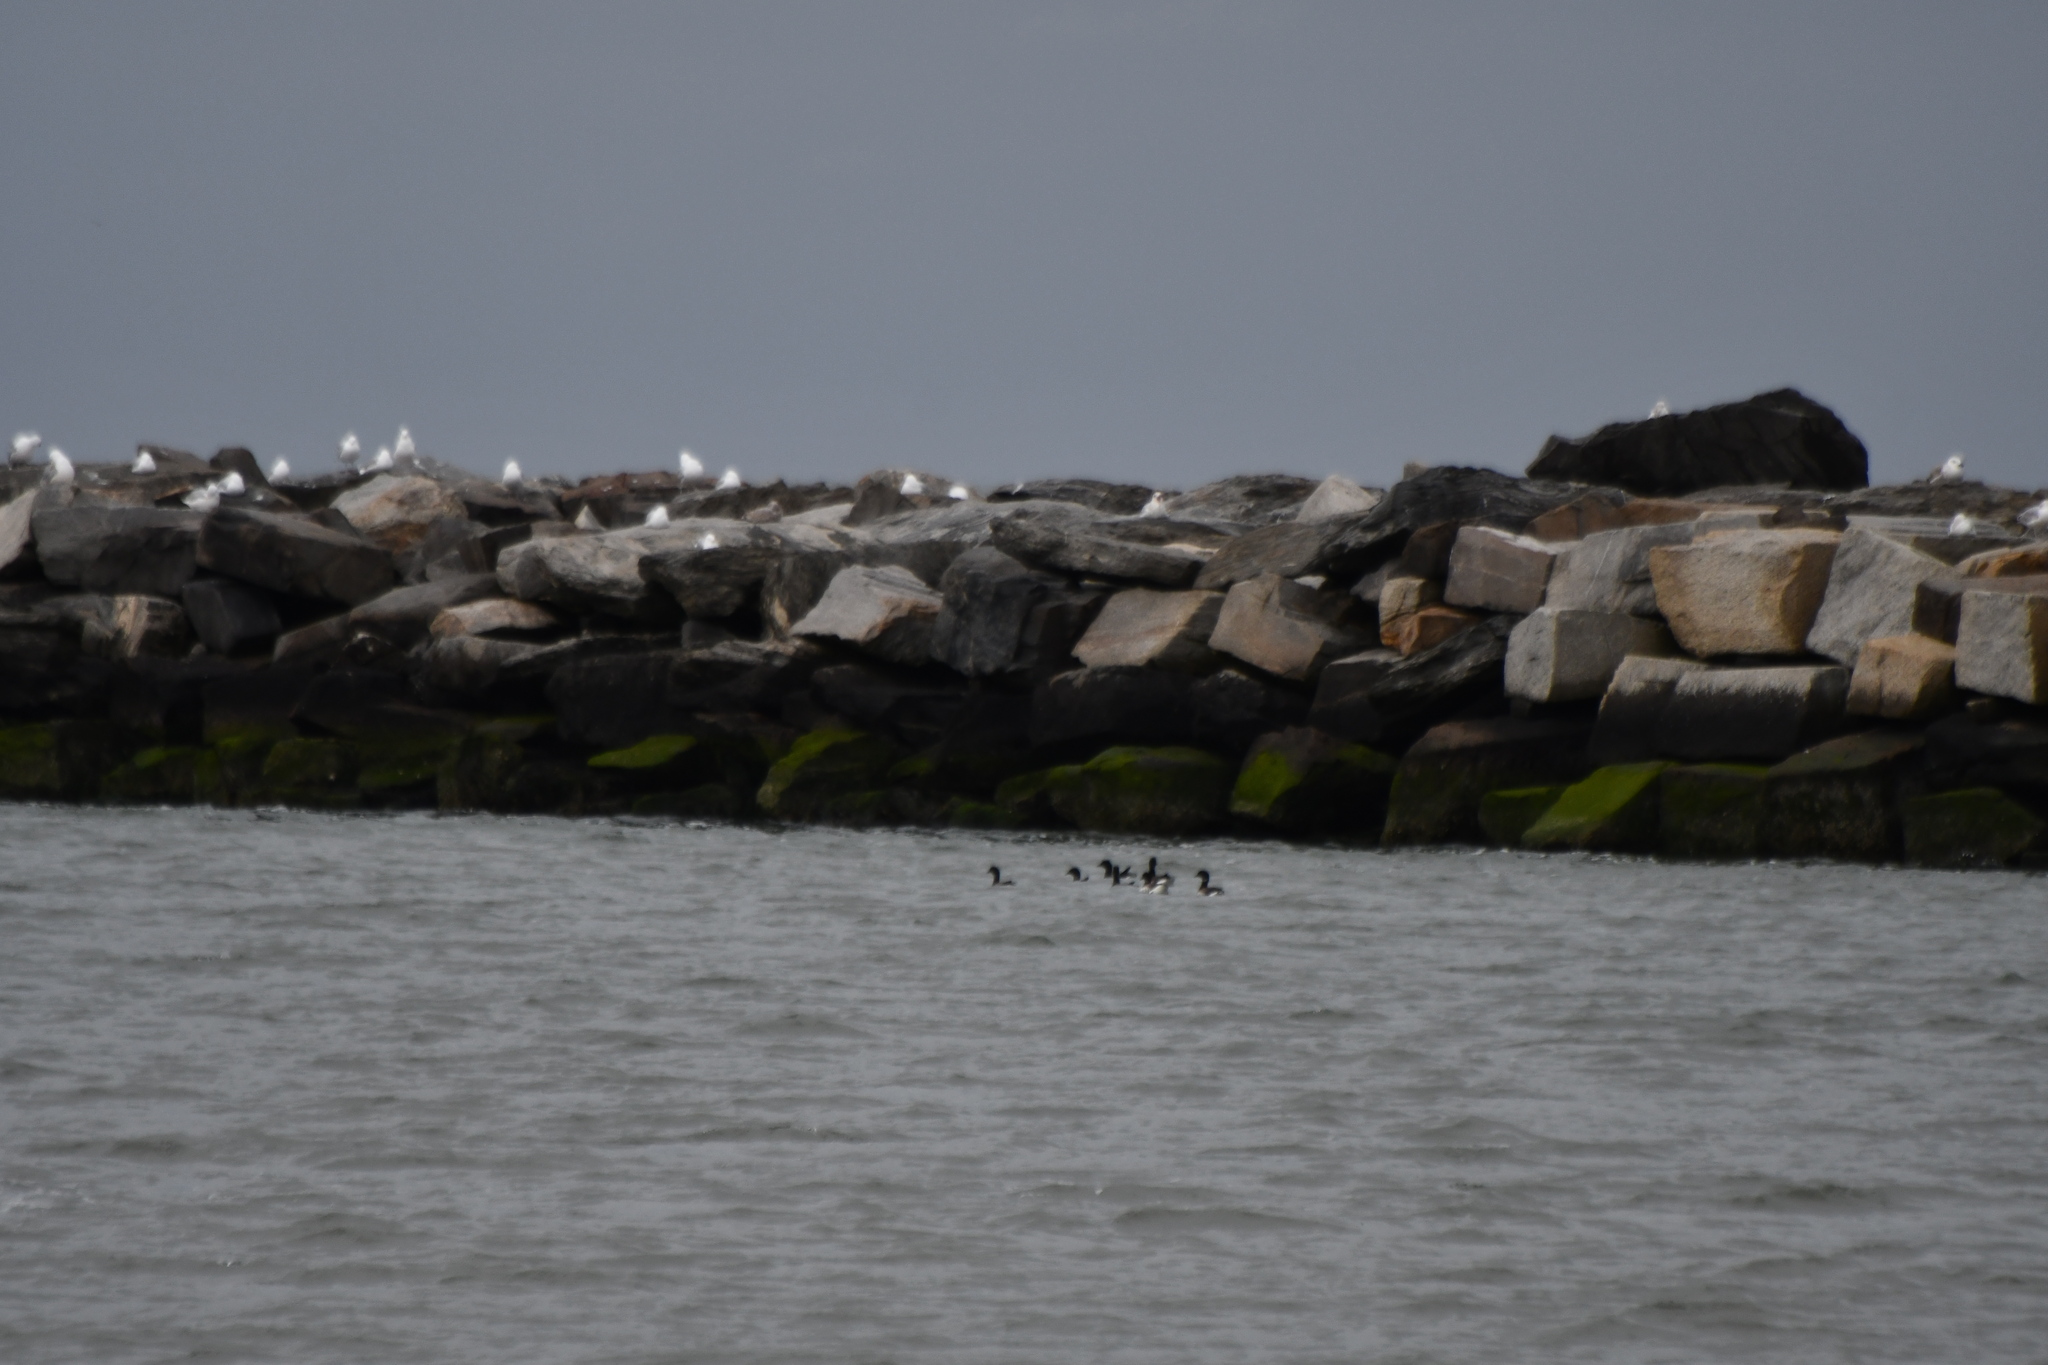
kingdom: Animalia
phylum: Chordata
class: Aves
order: Anseriformes
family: Anatidae
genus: Branta
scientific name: Branta bernicla
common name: Brant goose
